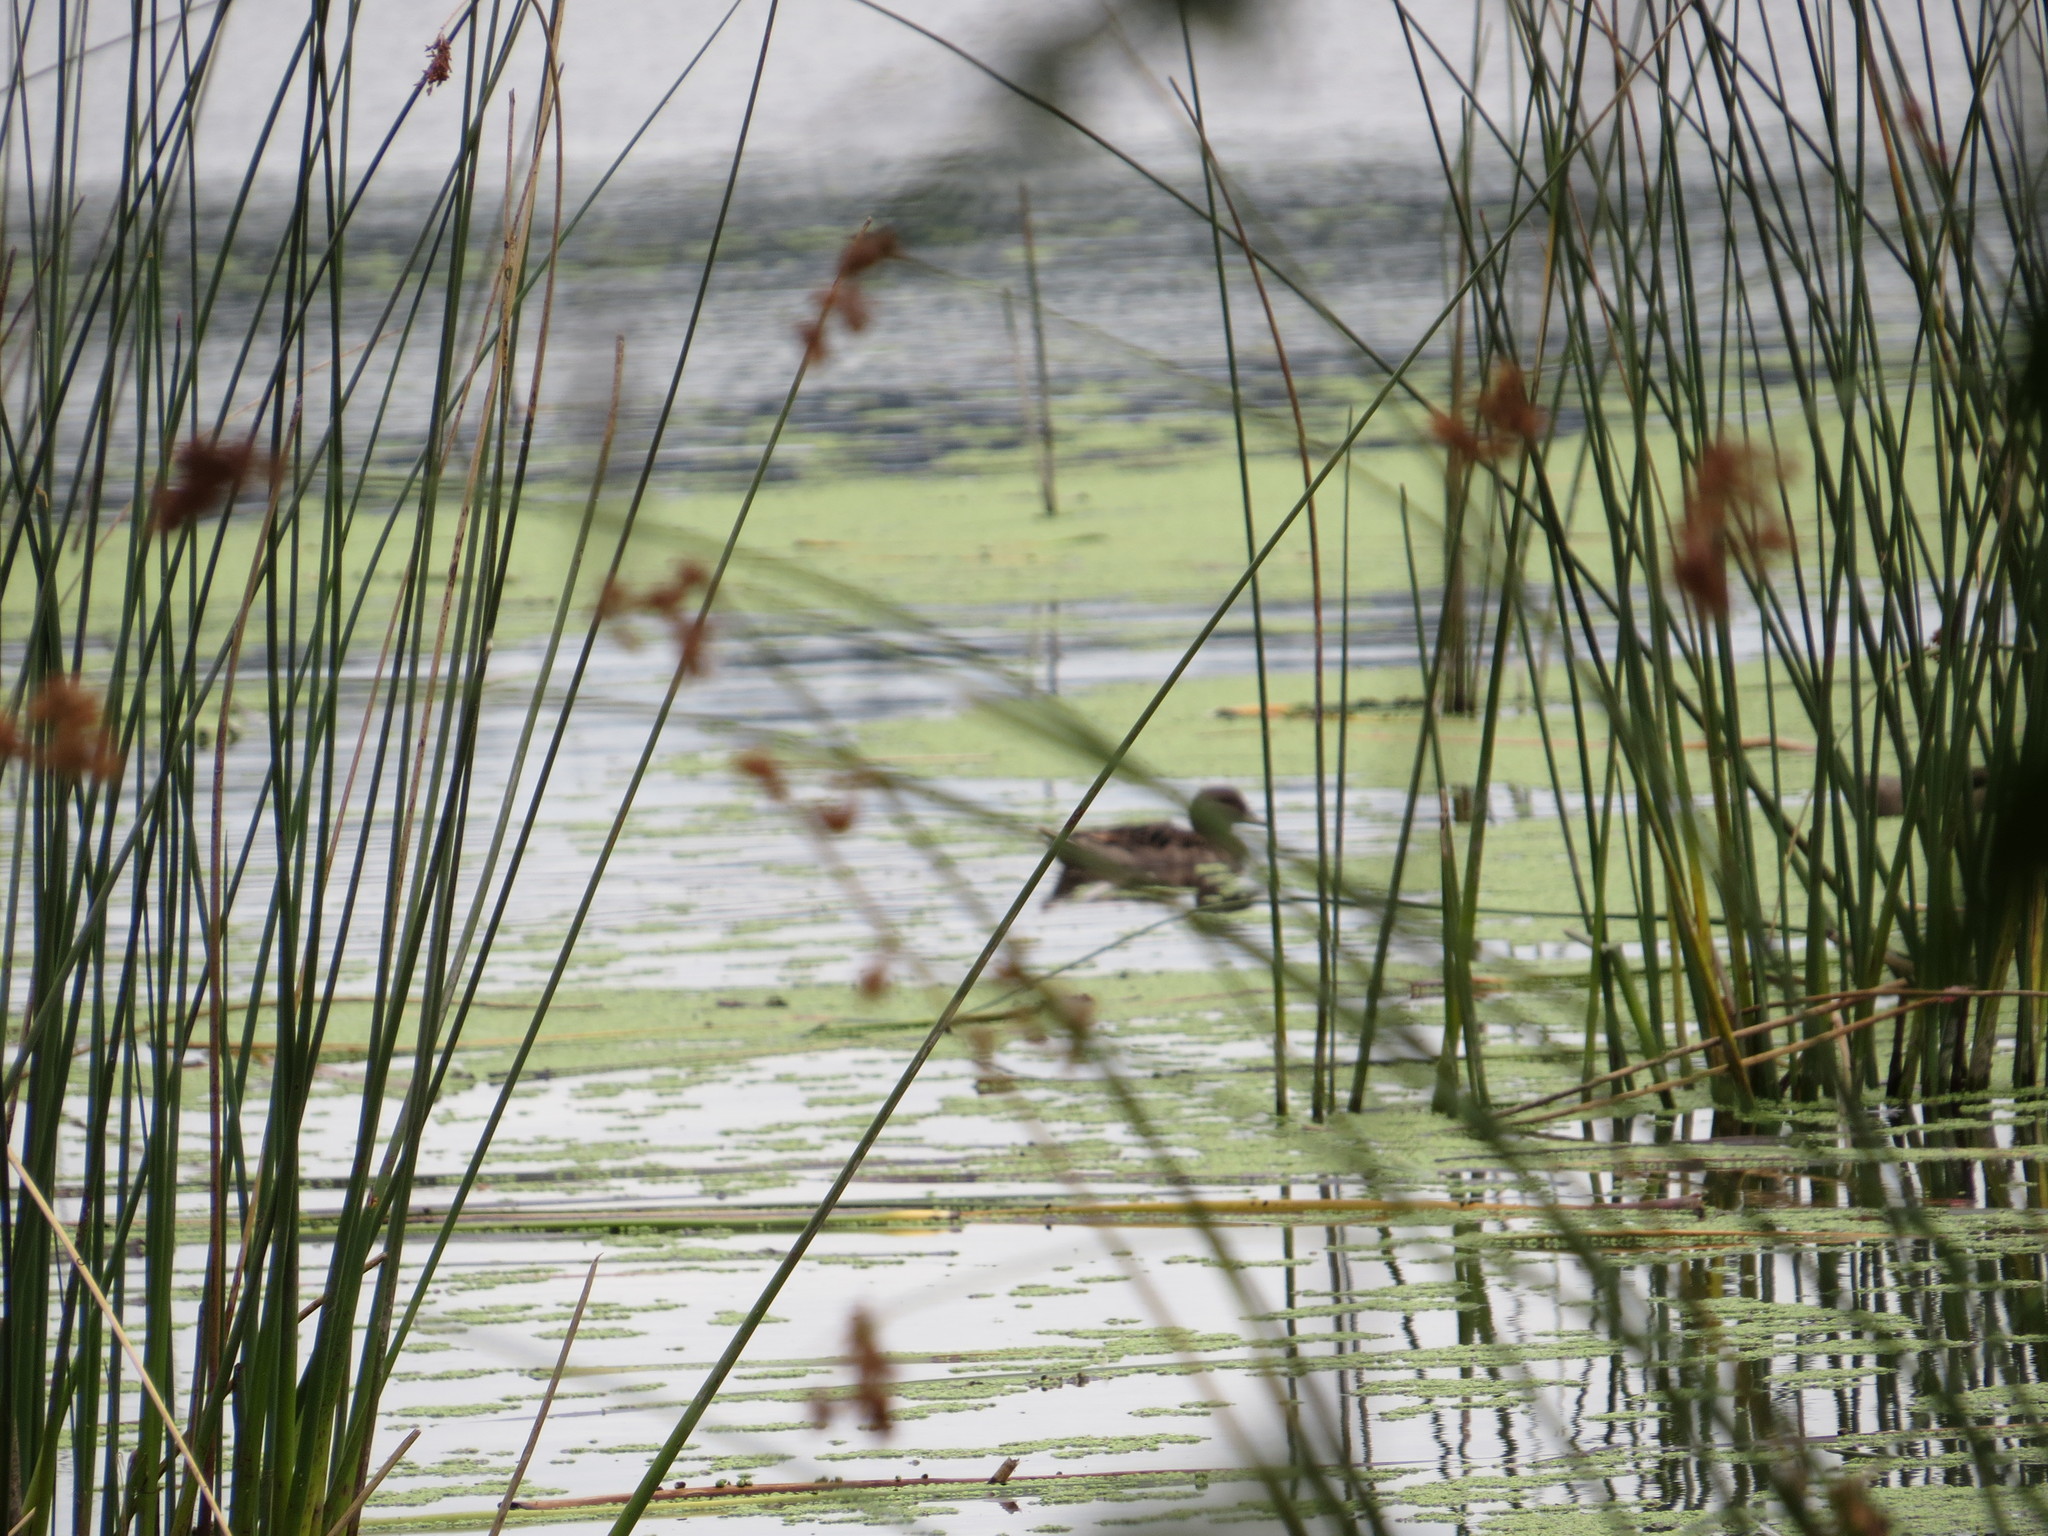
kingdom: Animalia
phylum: Chordata
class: Aves
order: Anseriformes
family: Anatidae
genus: Anas
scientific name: Anas flavirostris
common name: Yellow-billed teal
